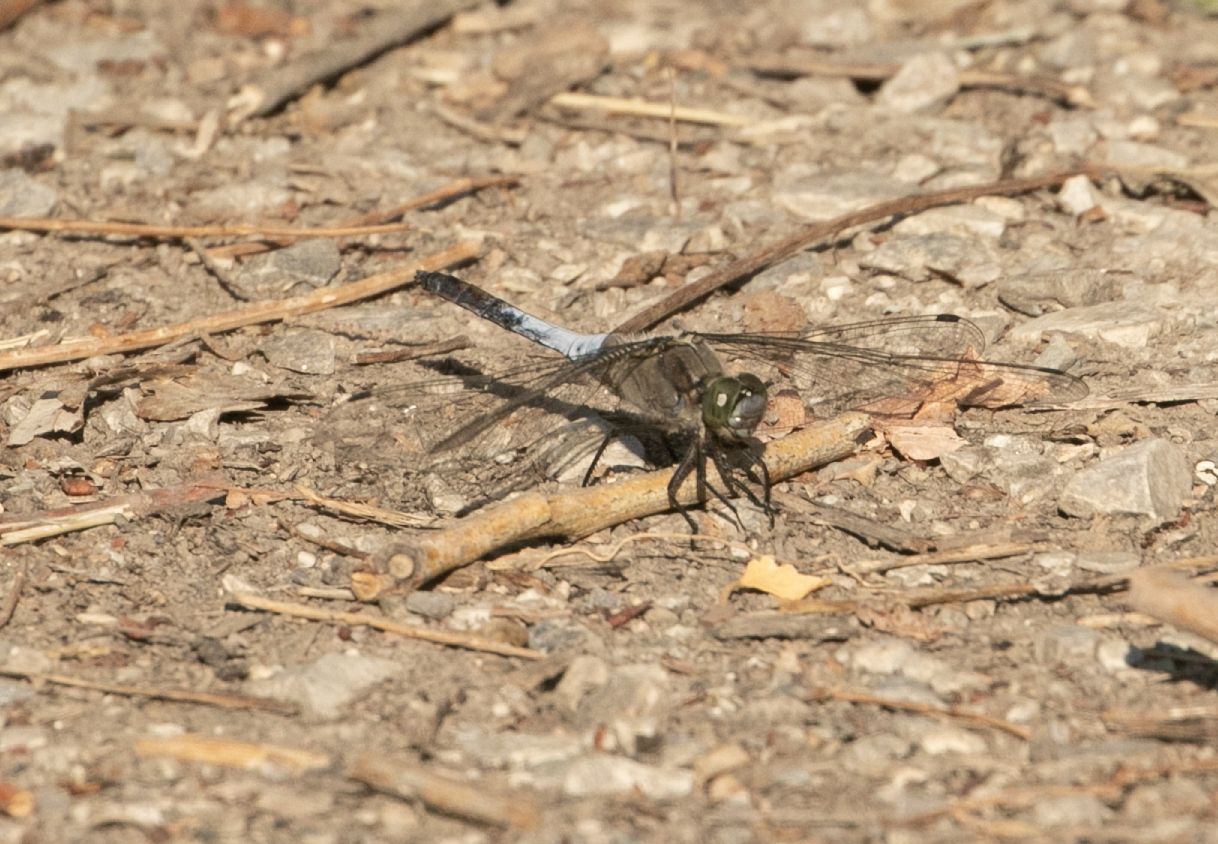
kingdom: Animalia
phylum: Arthropoda
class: Insecta
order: Odonata
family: Libellulidae
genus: Orthetrum
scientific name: Orthetrum cancellatum
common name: Black-tailed skimmer
